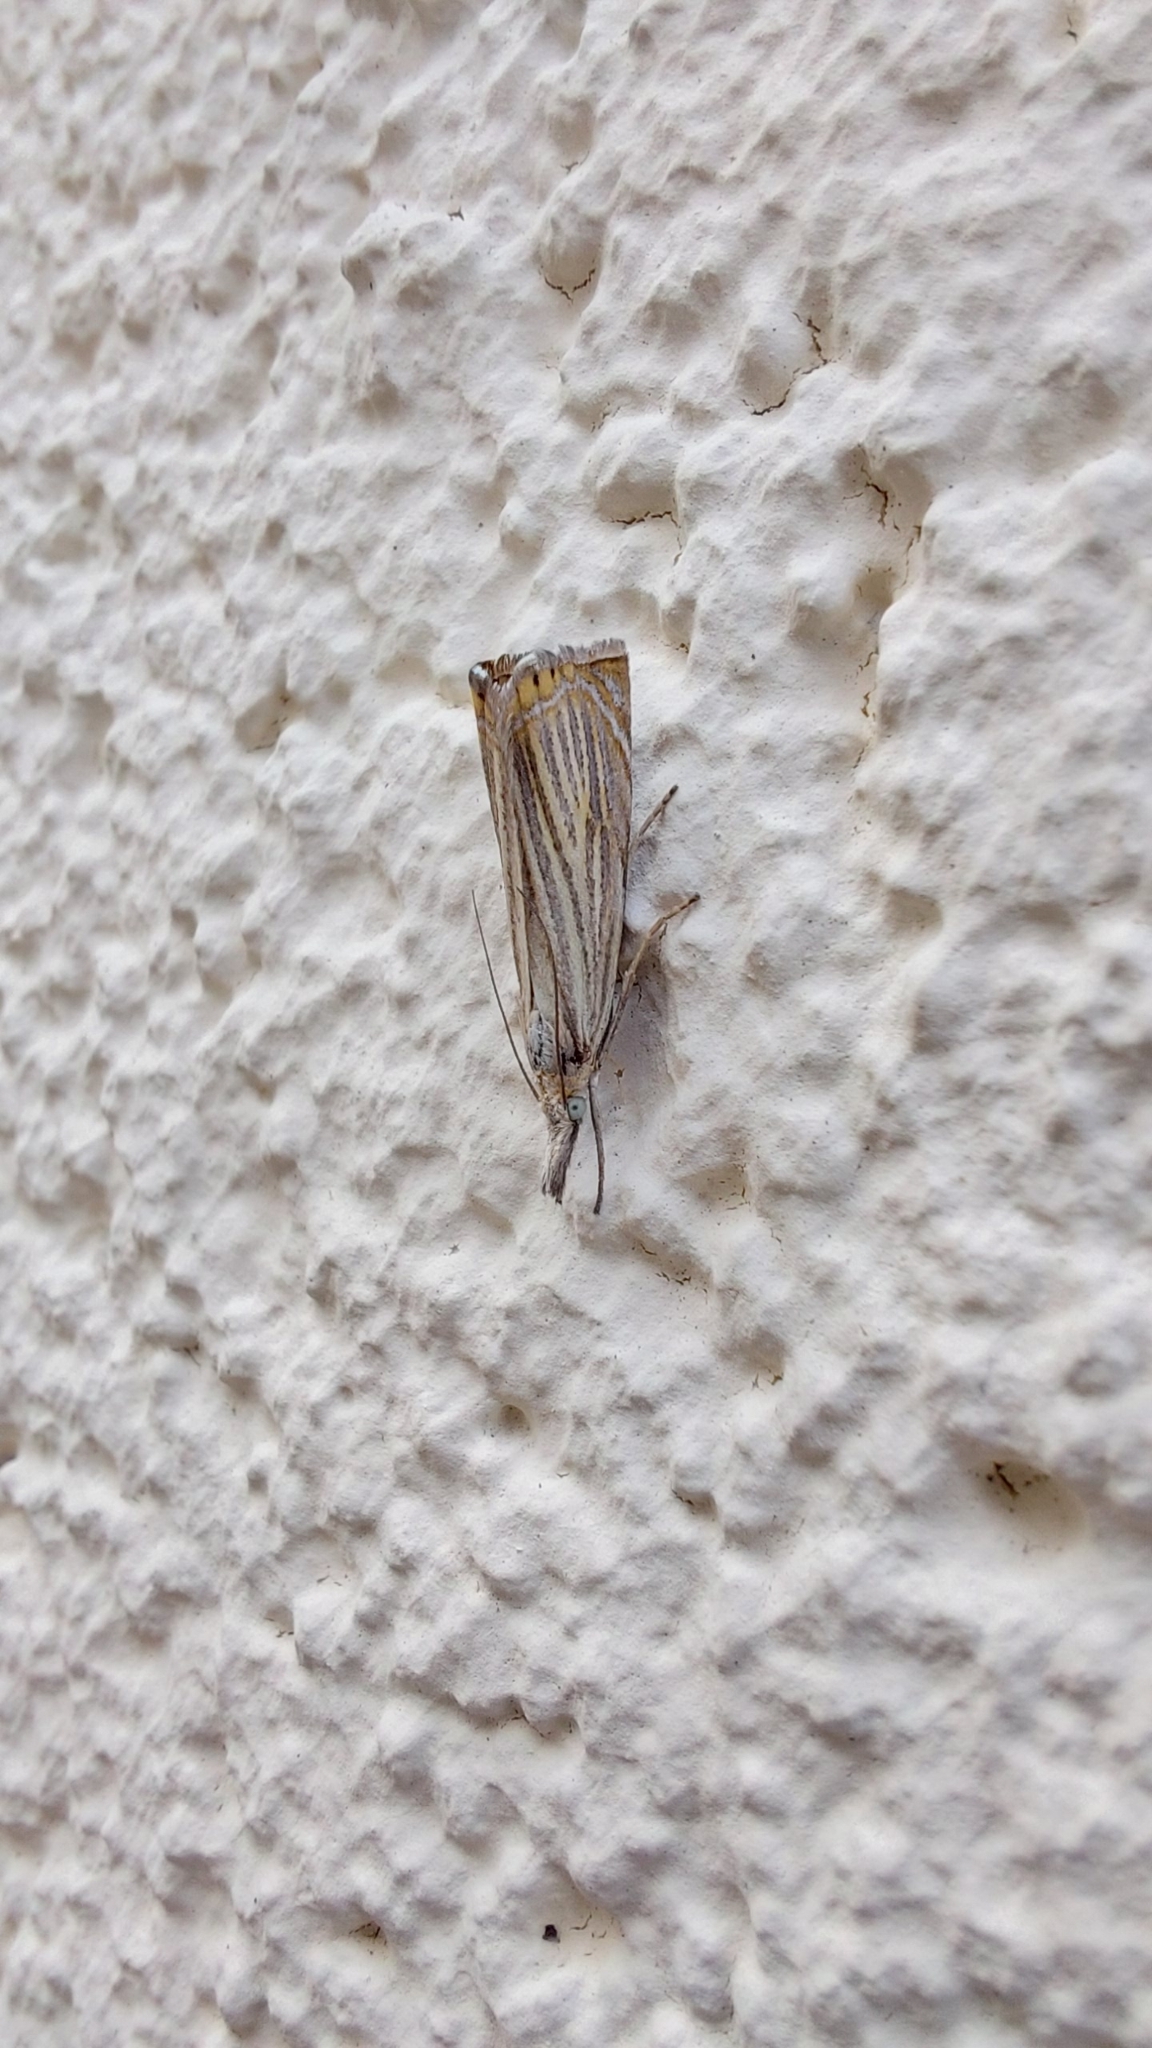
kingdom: Animalia
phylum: Arthropoda
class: Insecta
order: Lepidoptera
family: Crambidae
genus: Chrysoteuchia
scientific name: Chrysoteuchia culmella
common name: Garden grass-veneer
